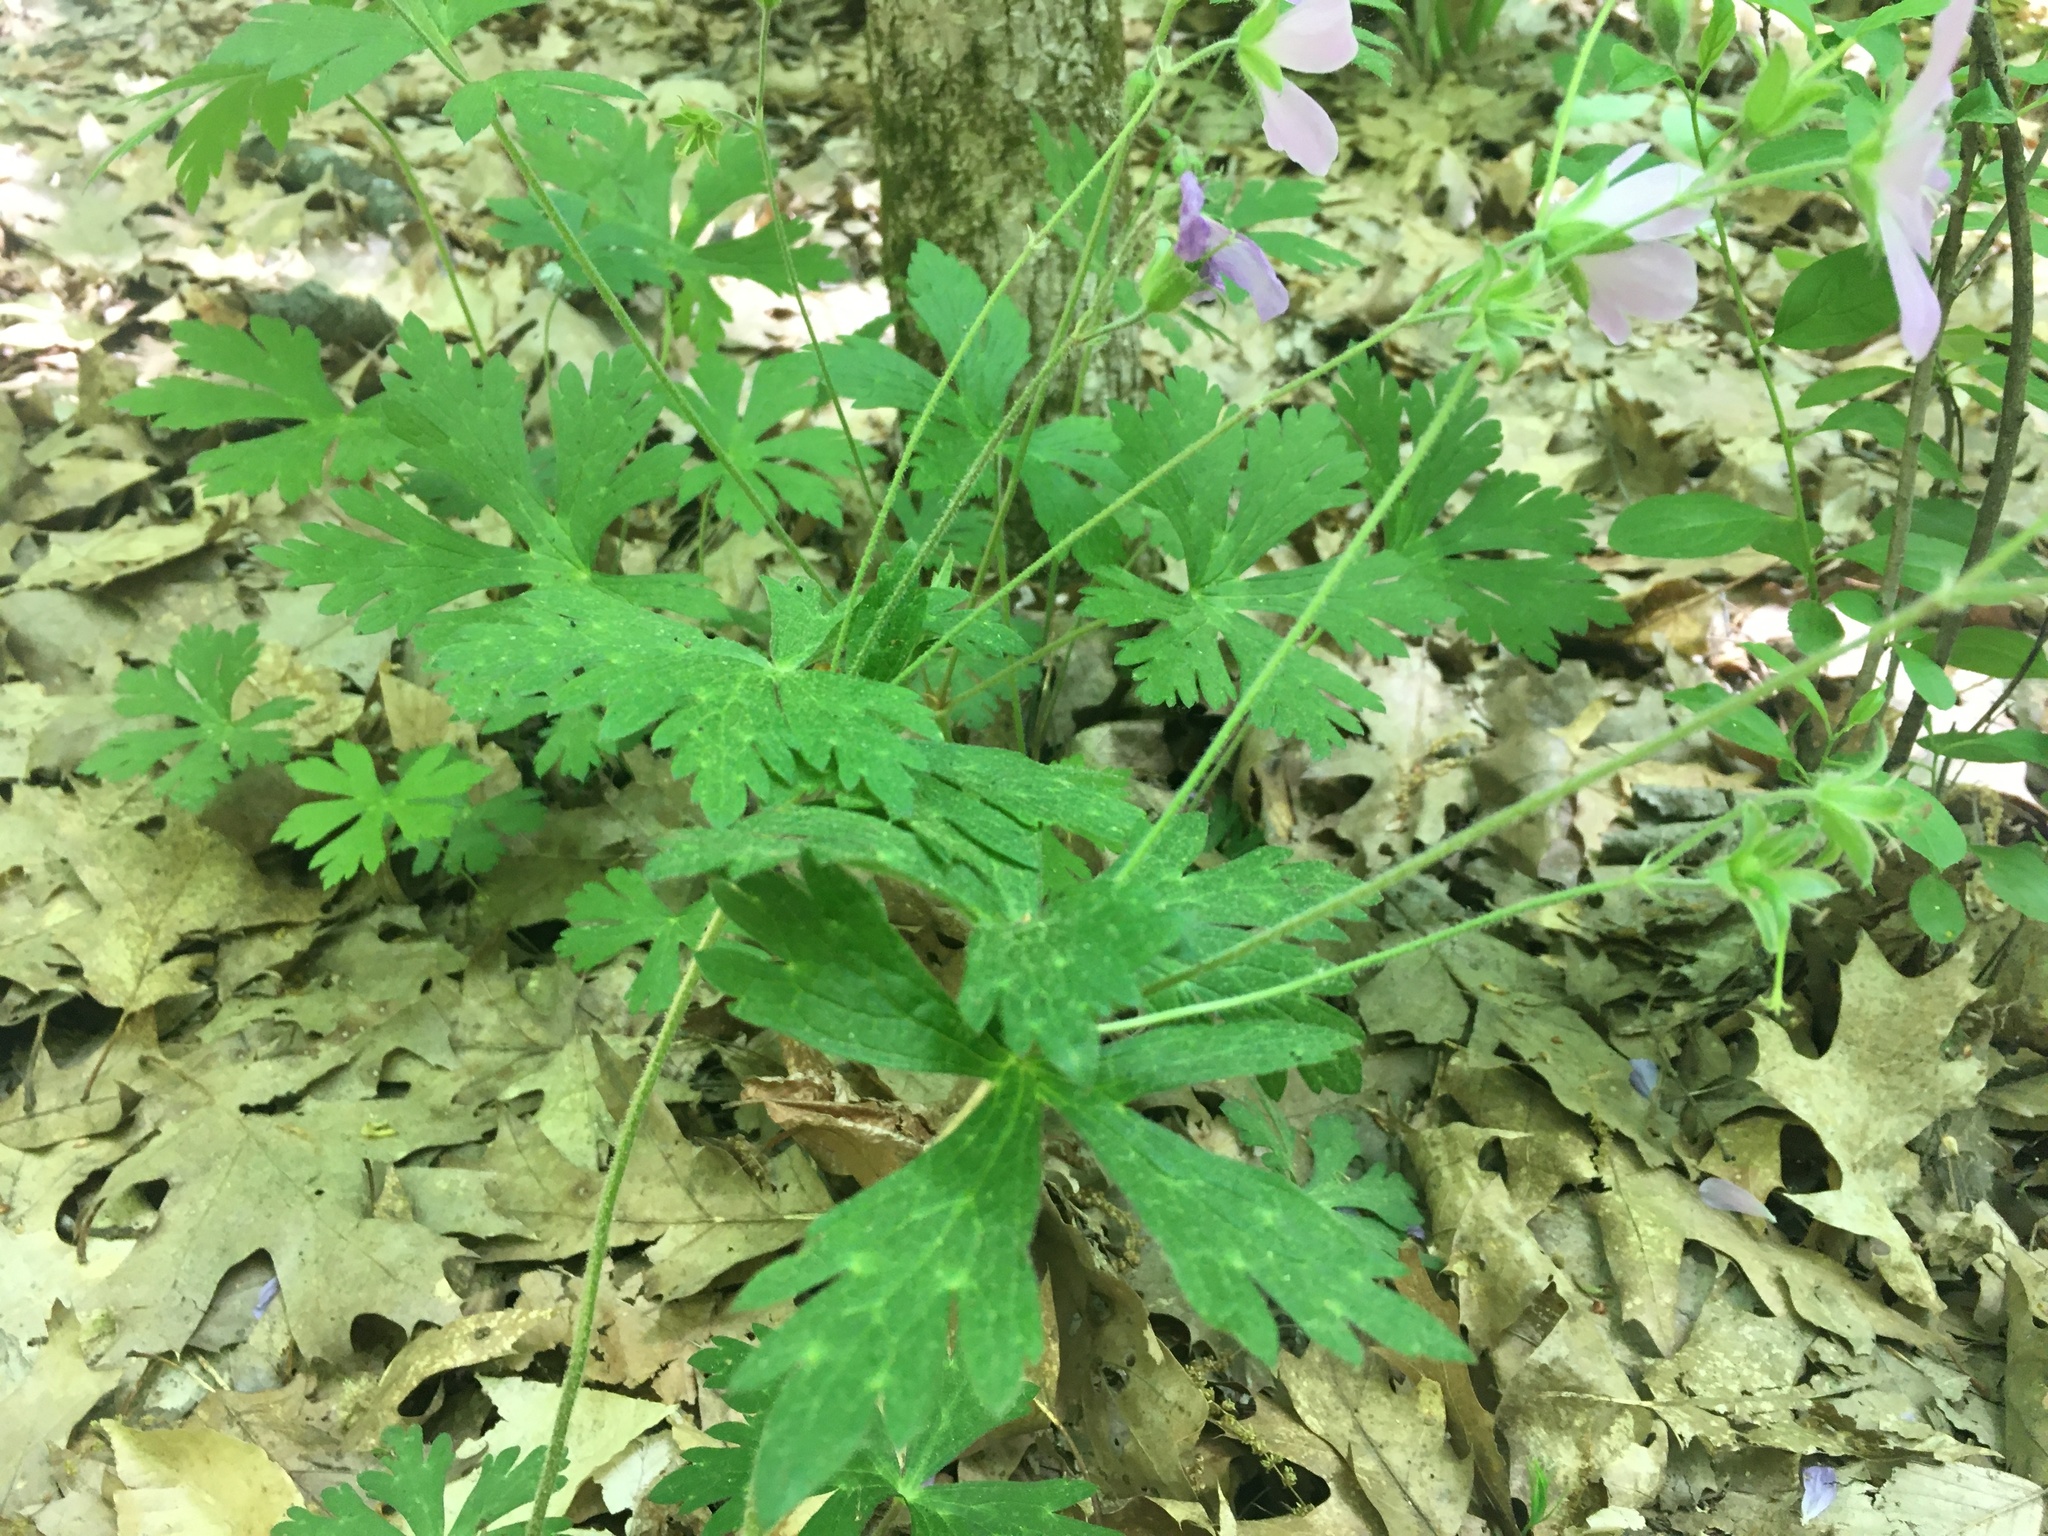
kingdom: Plantae
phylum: Tracheophyta
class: Magnoliopsida
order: Geraniales
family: Geraniaceae
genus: Geranium
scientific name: Geranium maculatum
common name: Spotted geranium
